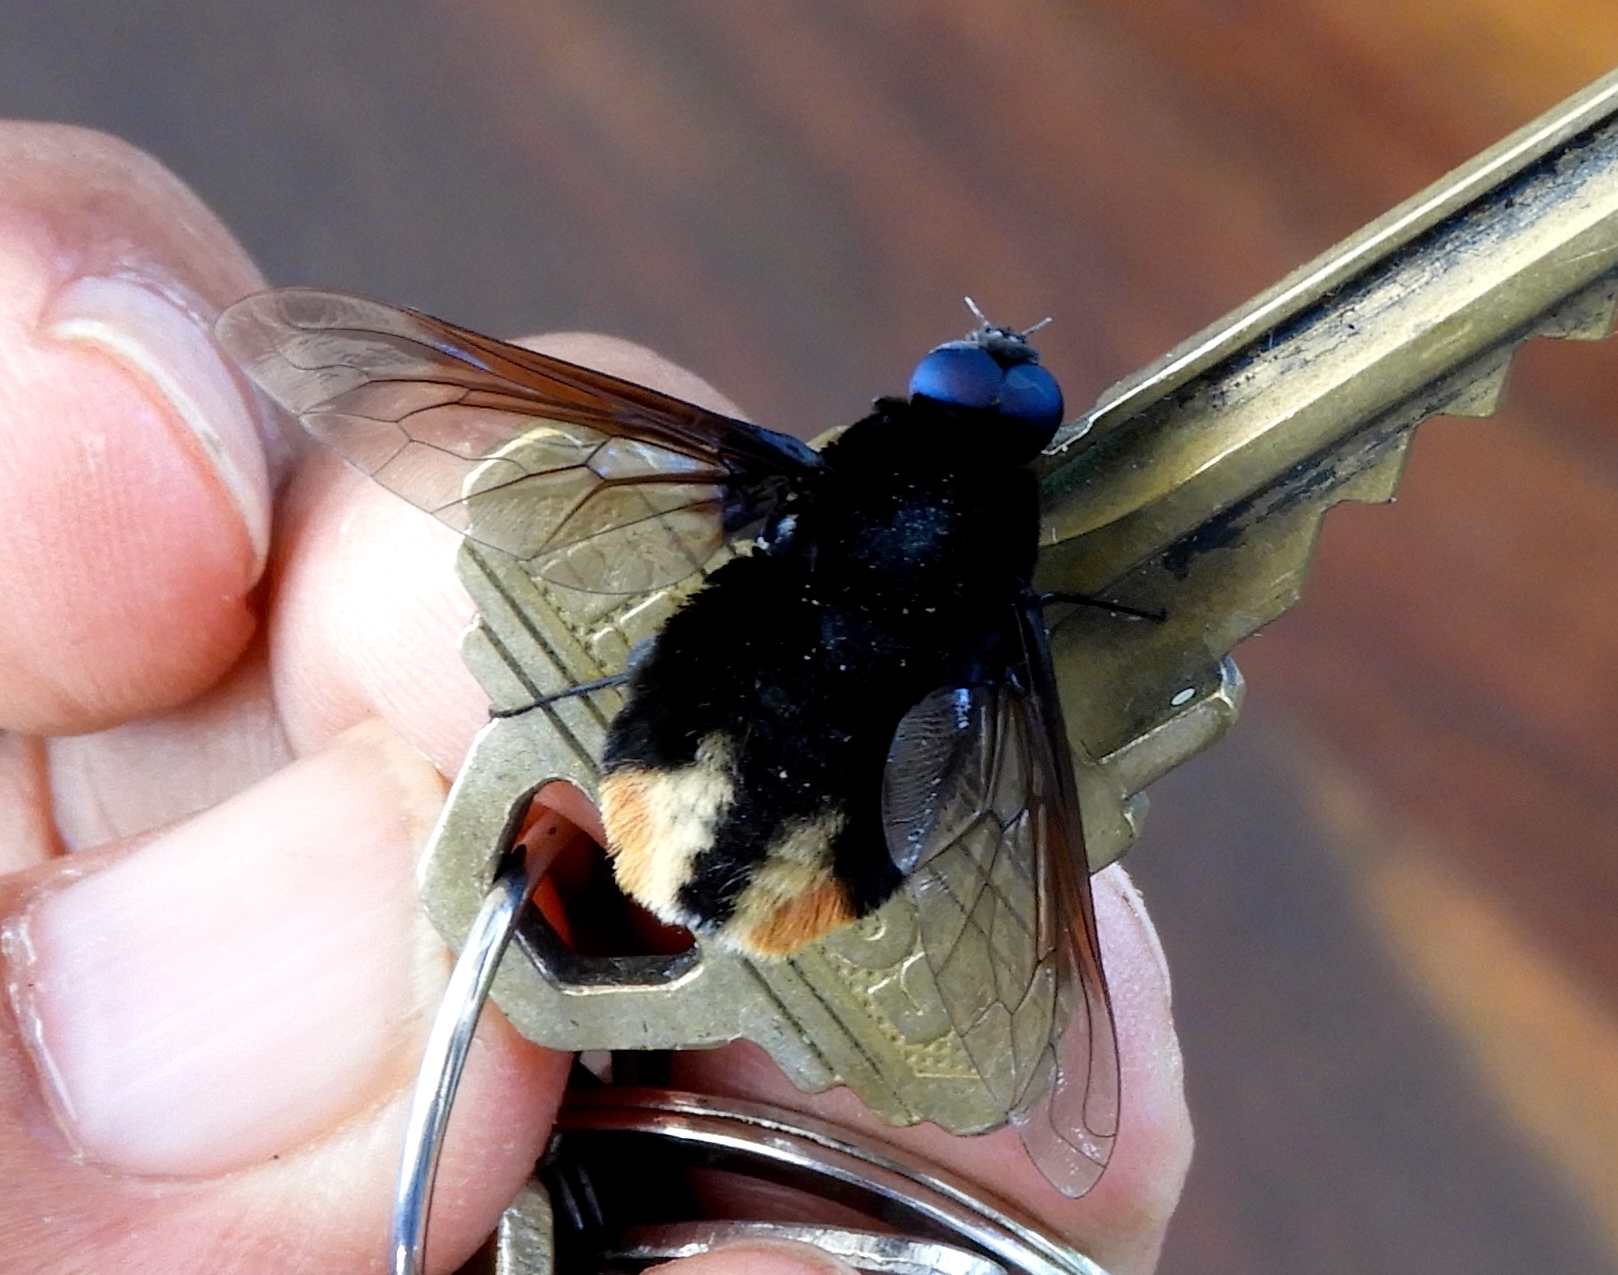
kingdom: Animalia
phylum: Arthropoda
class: Insecta
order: Diptera
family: Bombyliidae
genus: Bryodemina
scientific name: Bryodemina fasciata
